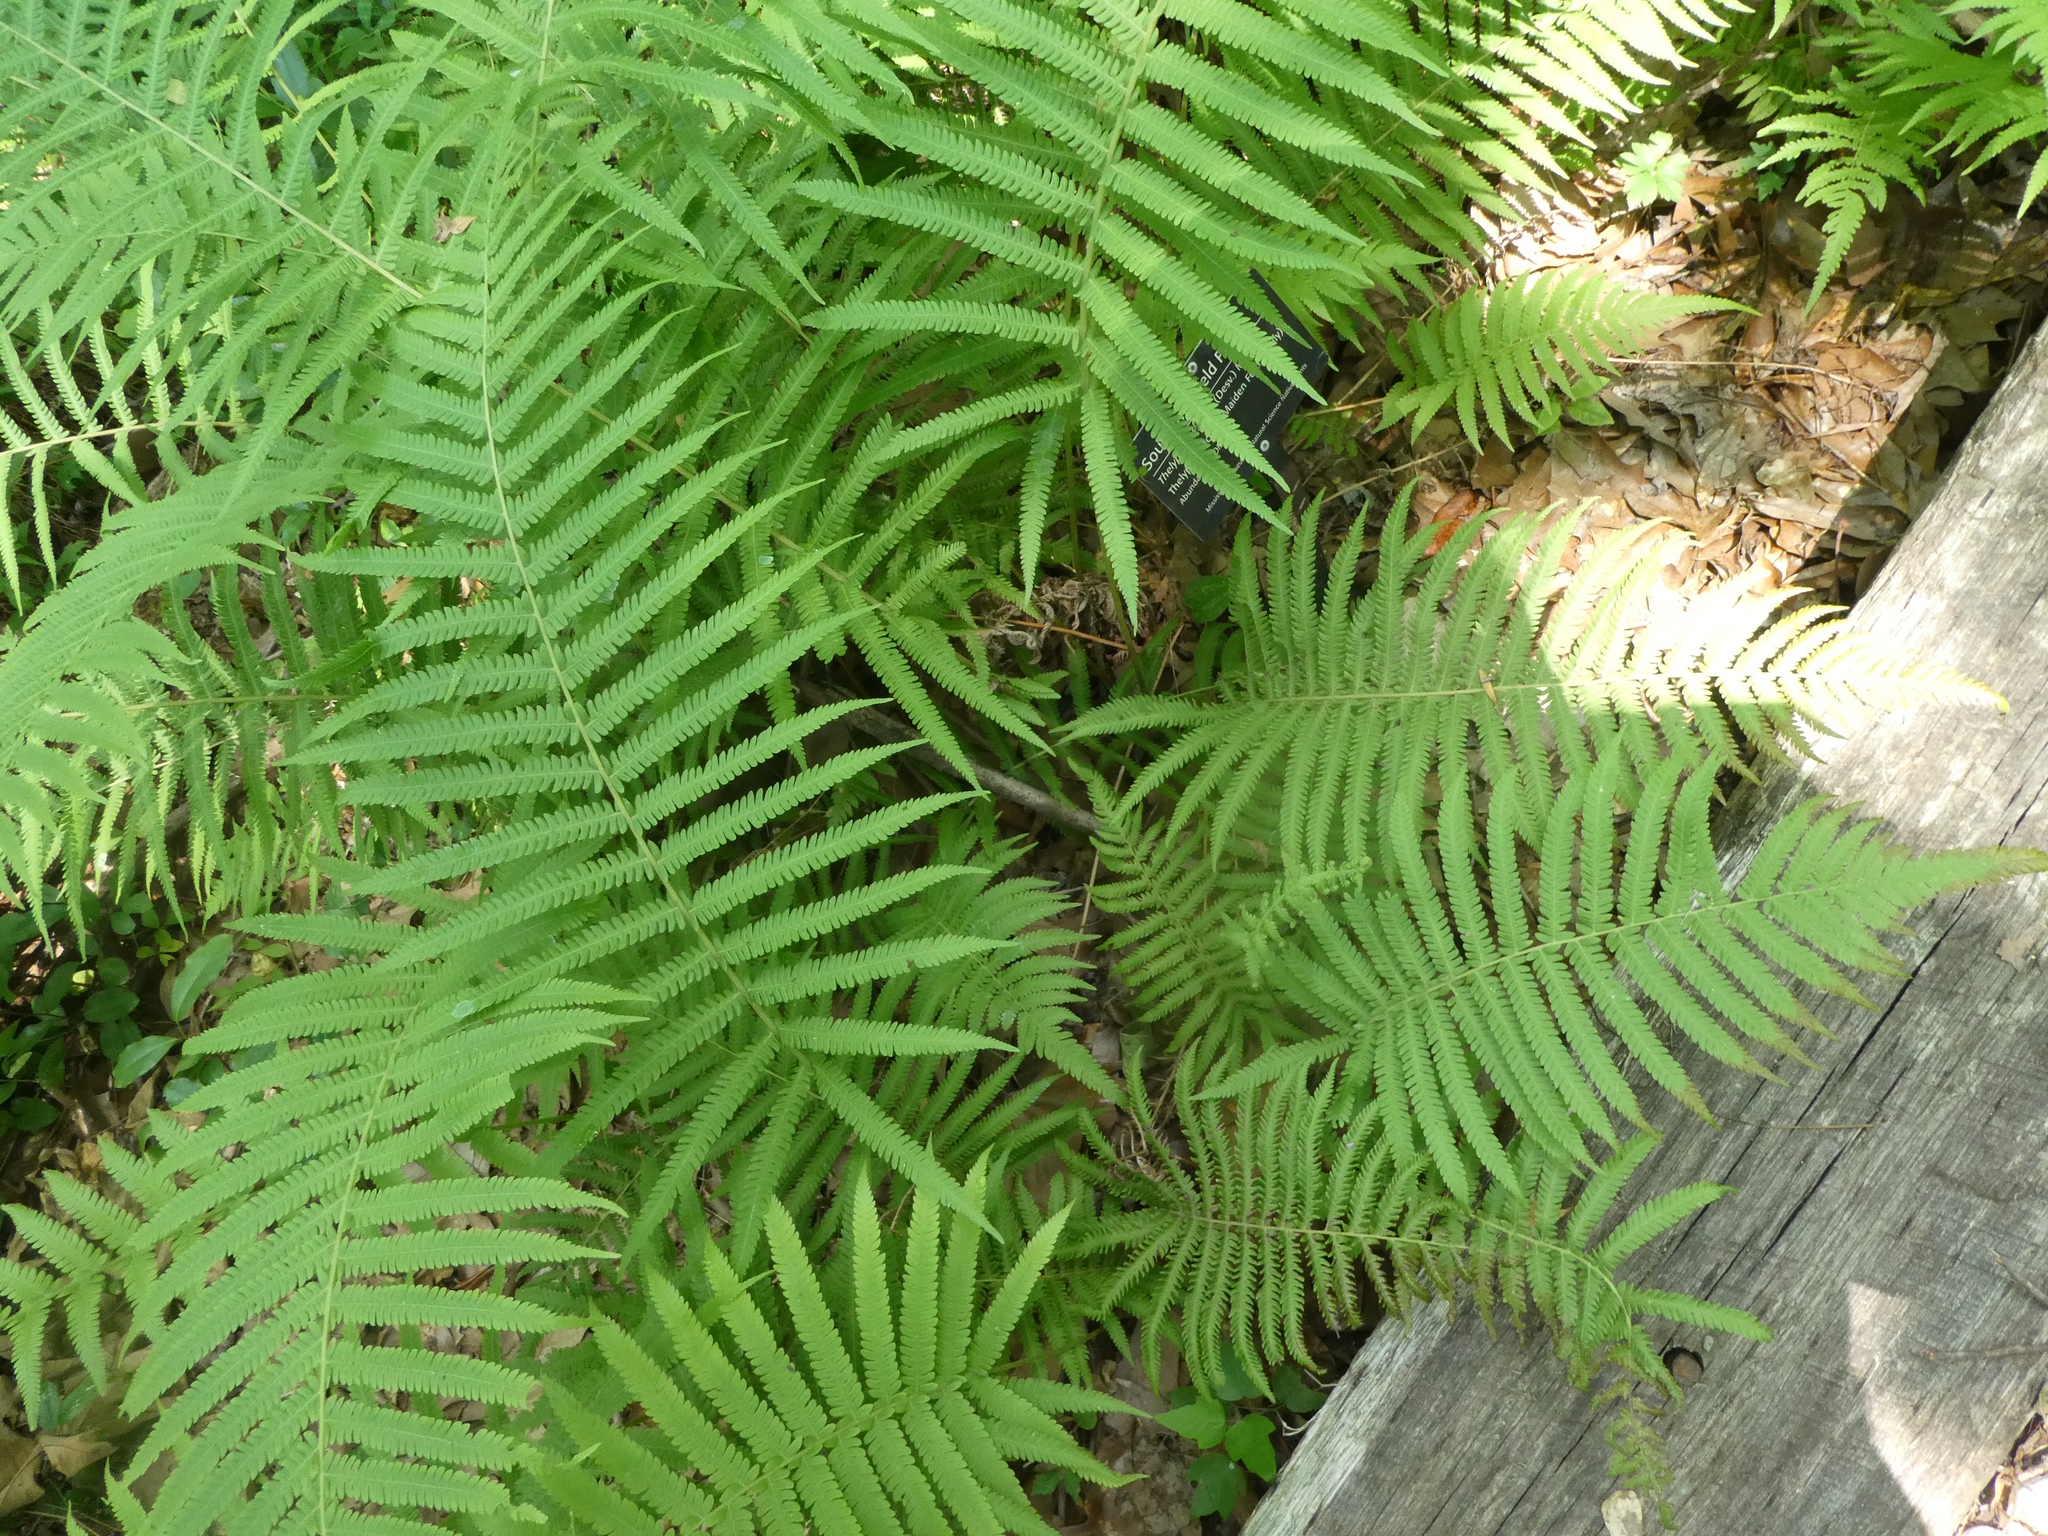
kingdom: Plantae
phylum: Tracheophyta
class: Polypodiopsida
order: Polypodiales
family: Thelypteridaceae
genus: Pelazoneuron
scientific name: Pelazoneuron kunthii
